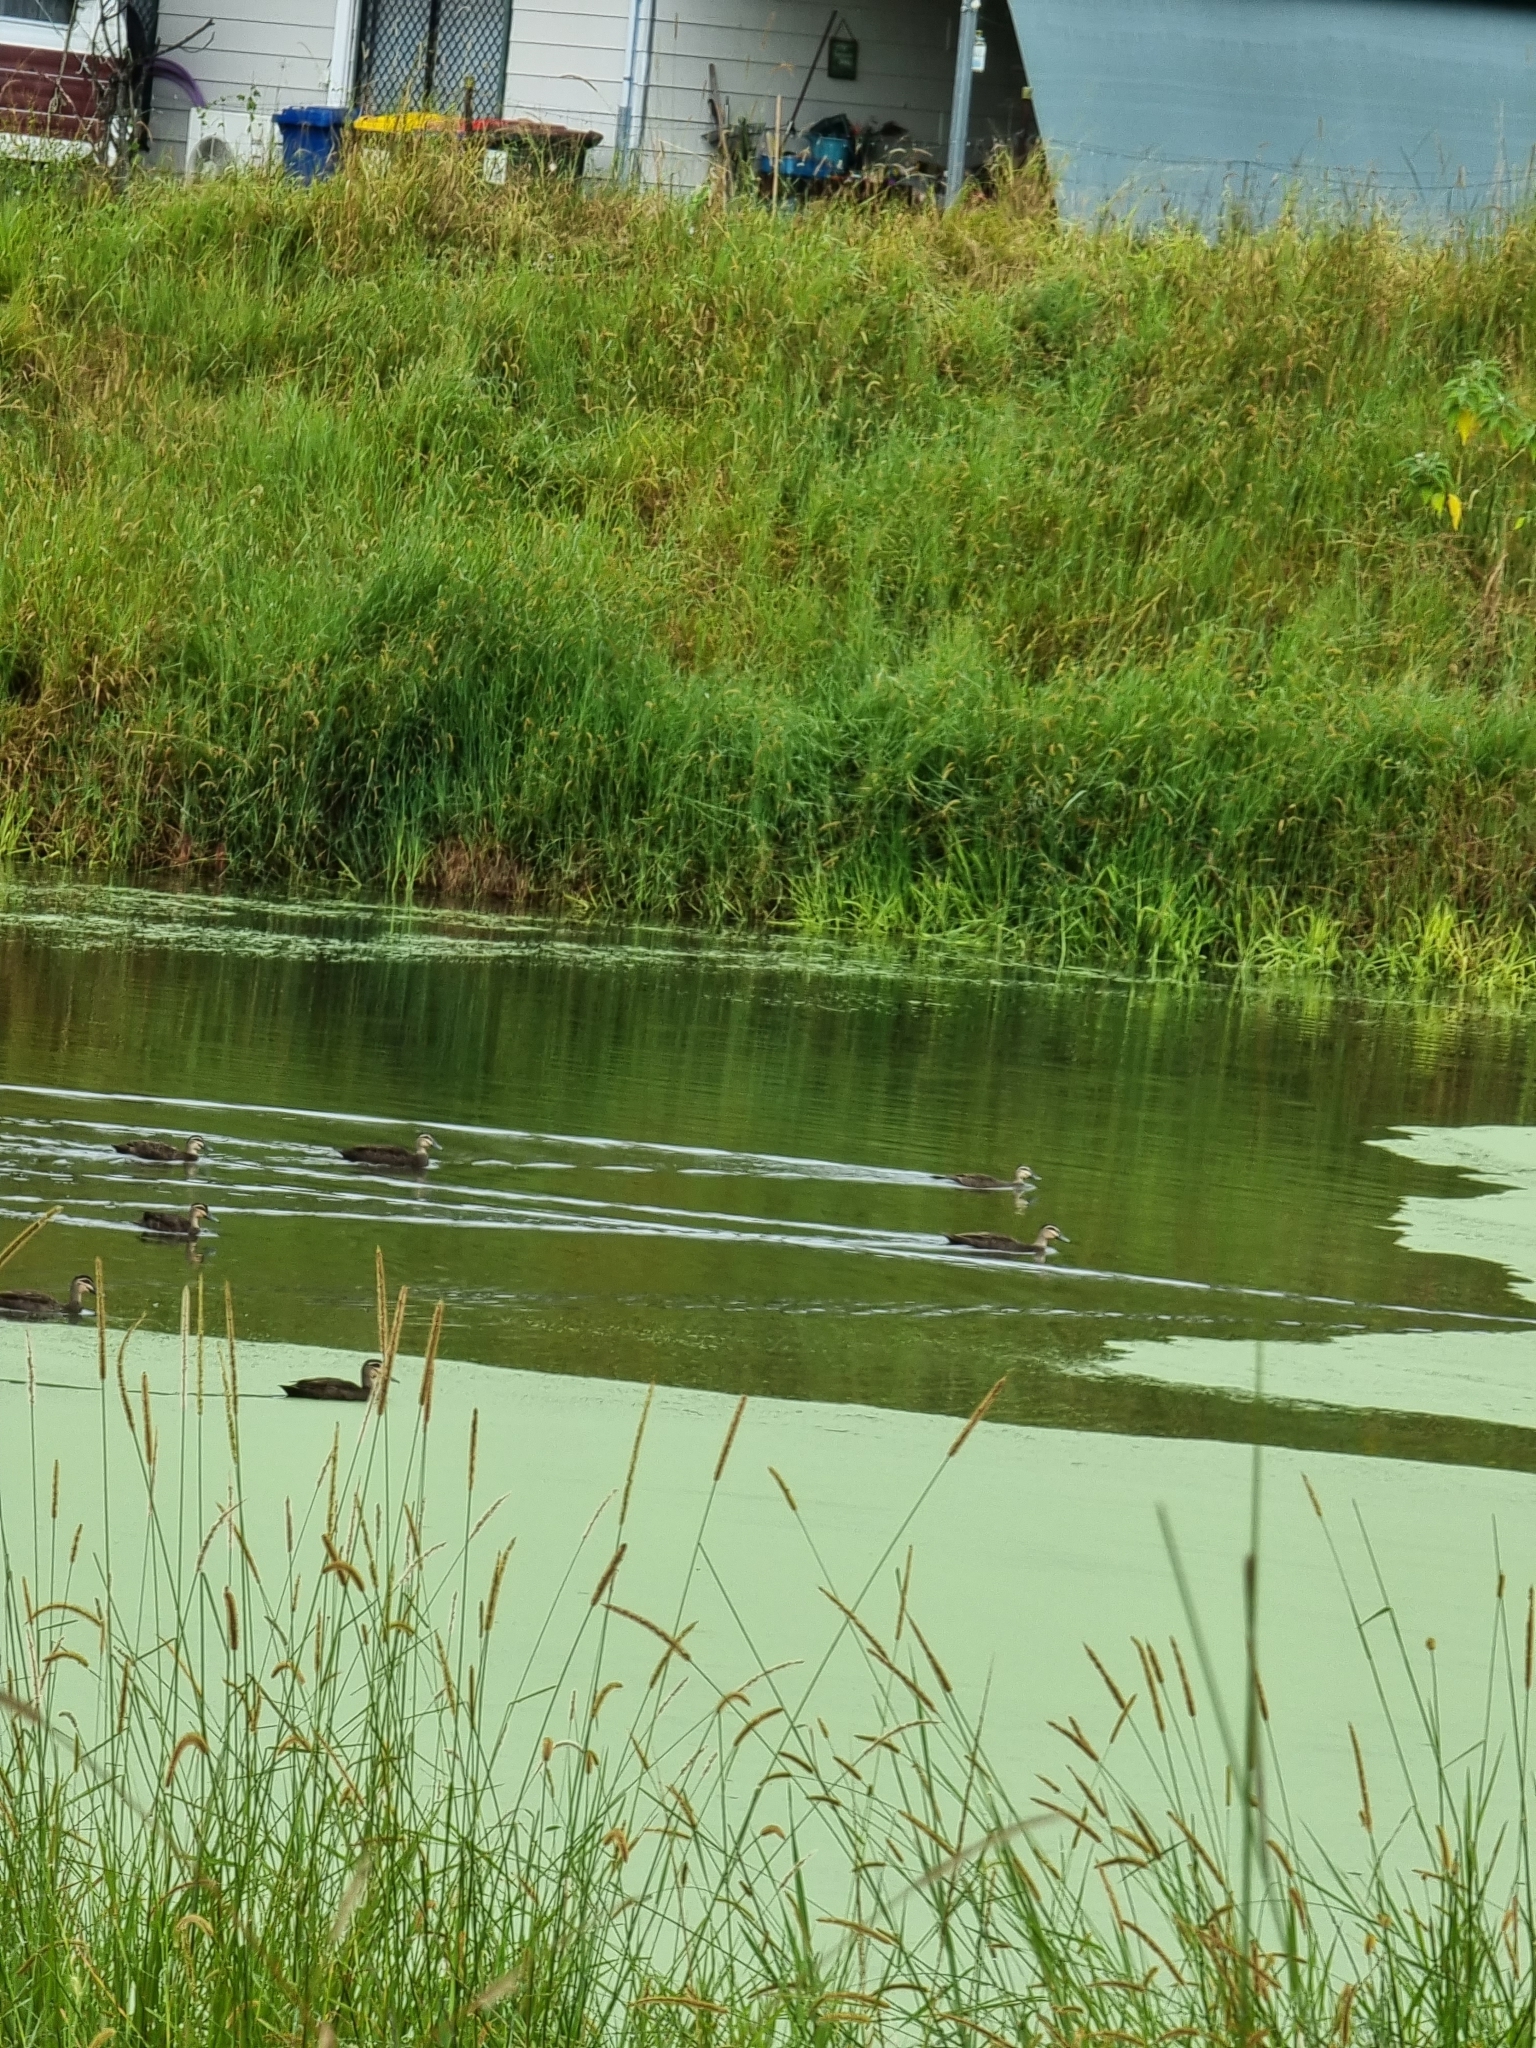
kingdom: Animalia
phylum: Chordata
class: Aves
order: Anseriformes
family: Anatidae
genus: Anas
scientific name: Anas superciliosa
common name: Pacific black duck
